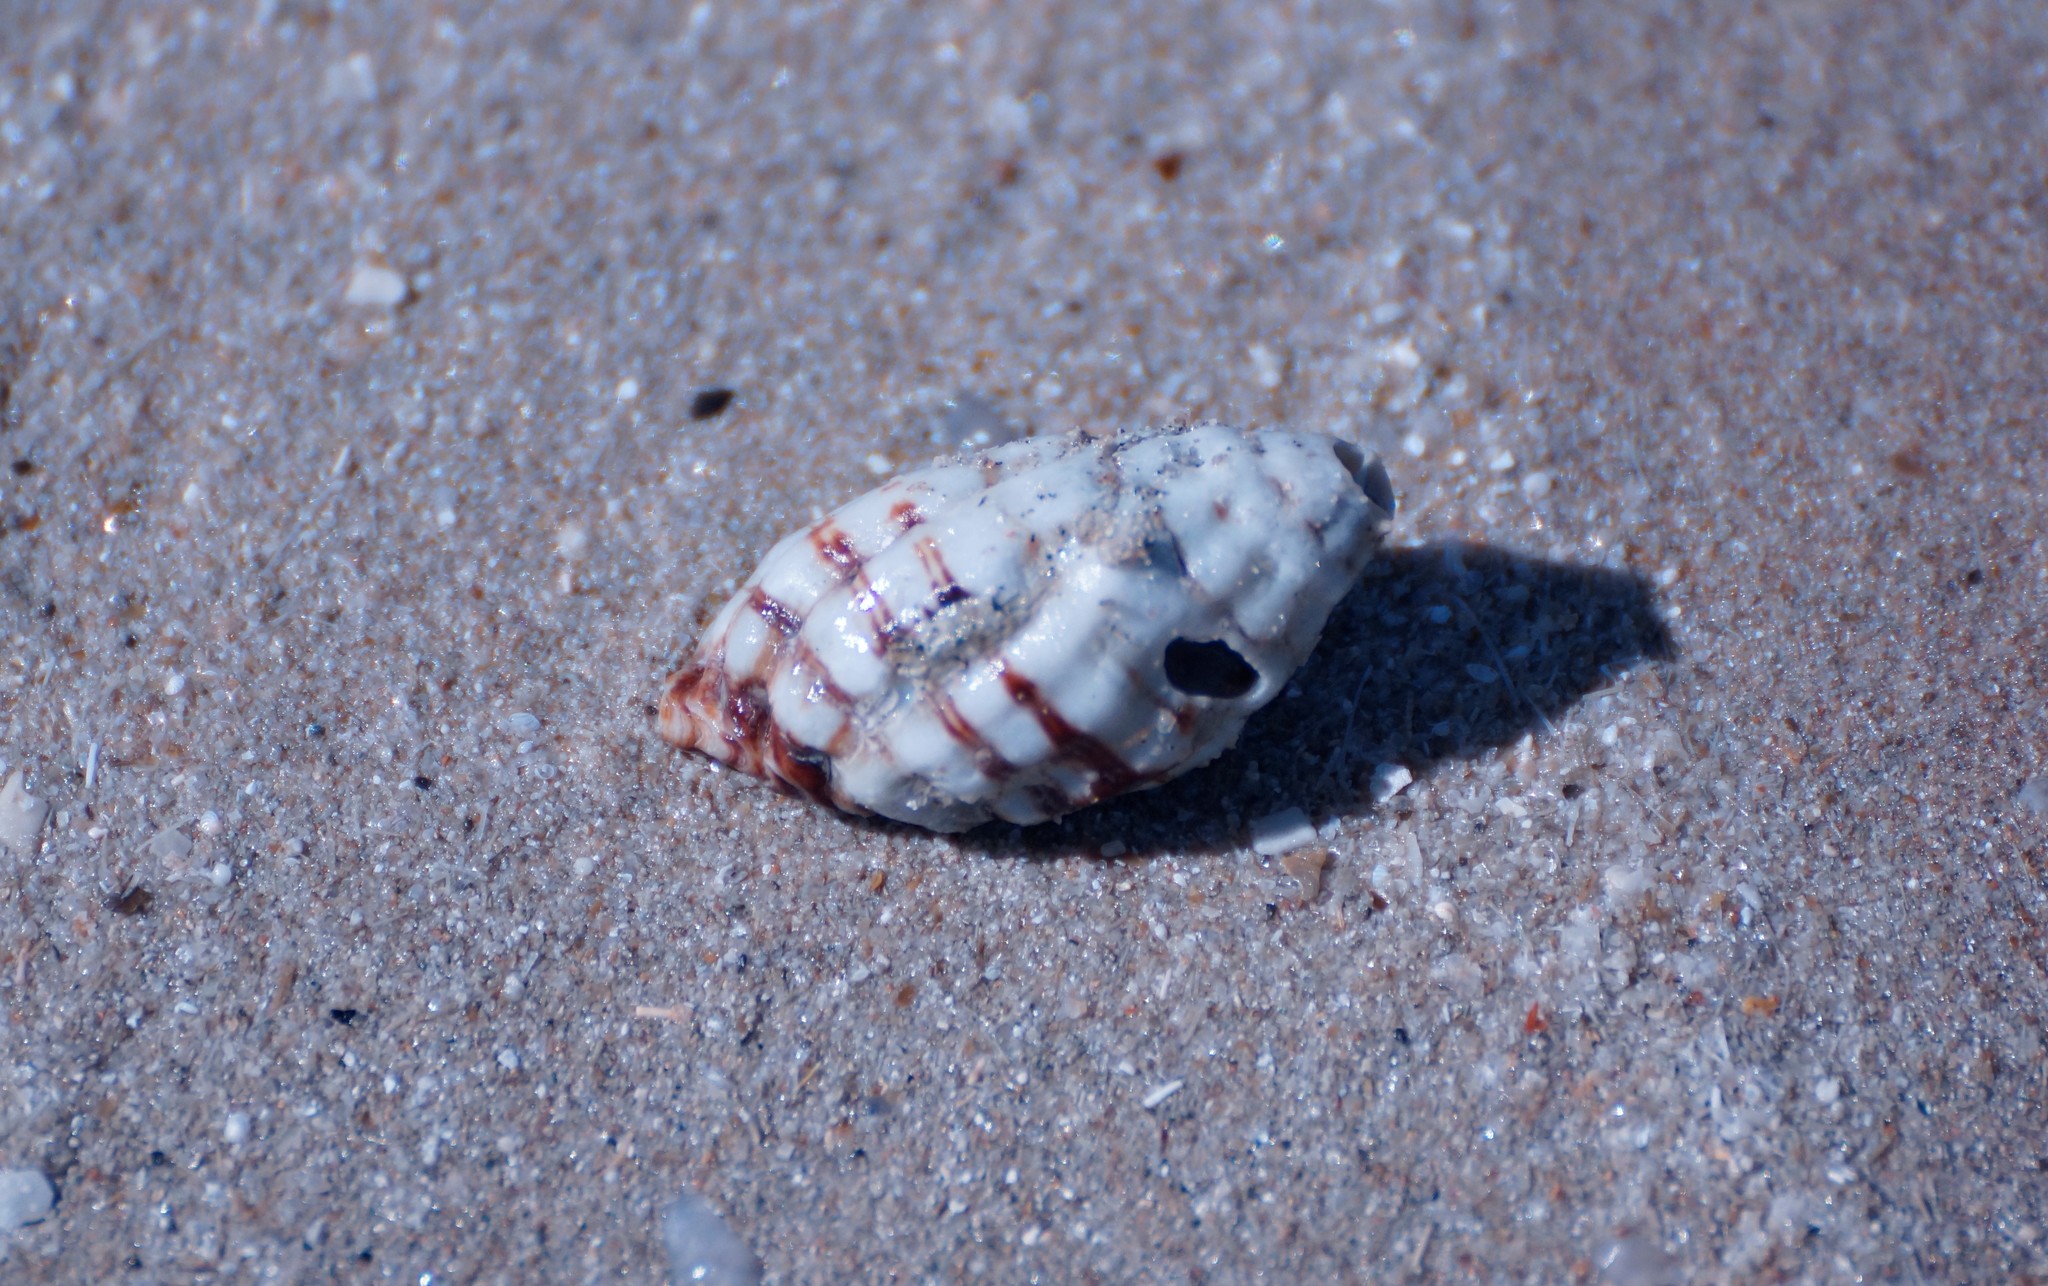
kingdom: Animalia
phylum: Mollusca
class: Gastropoda
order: Neogastropoda
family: Muricidae
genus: Cronia
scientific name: Cronia aurantiaca
